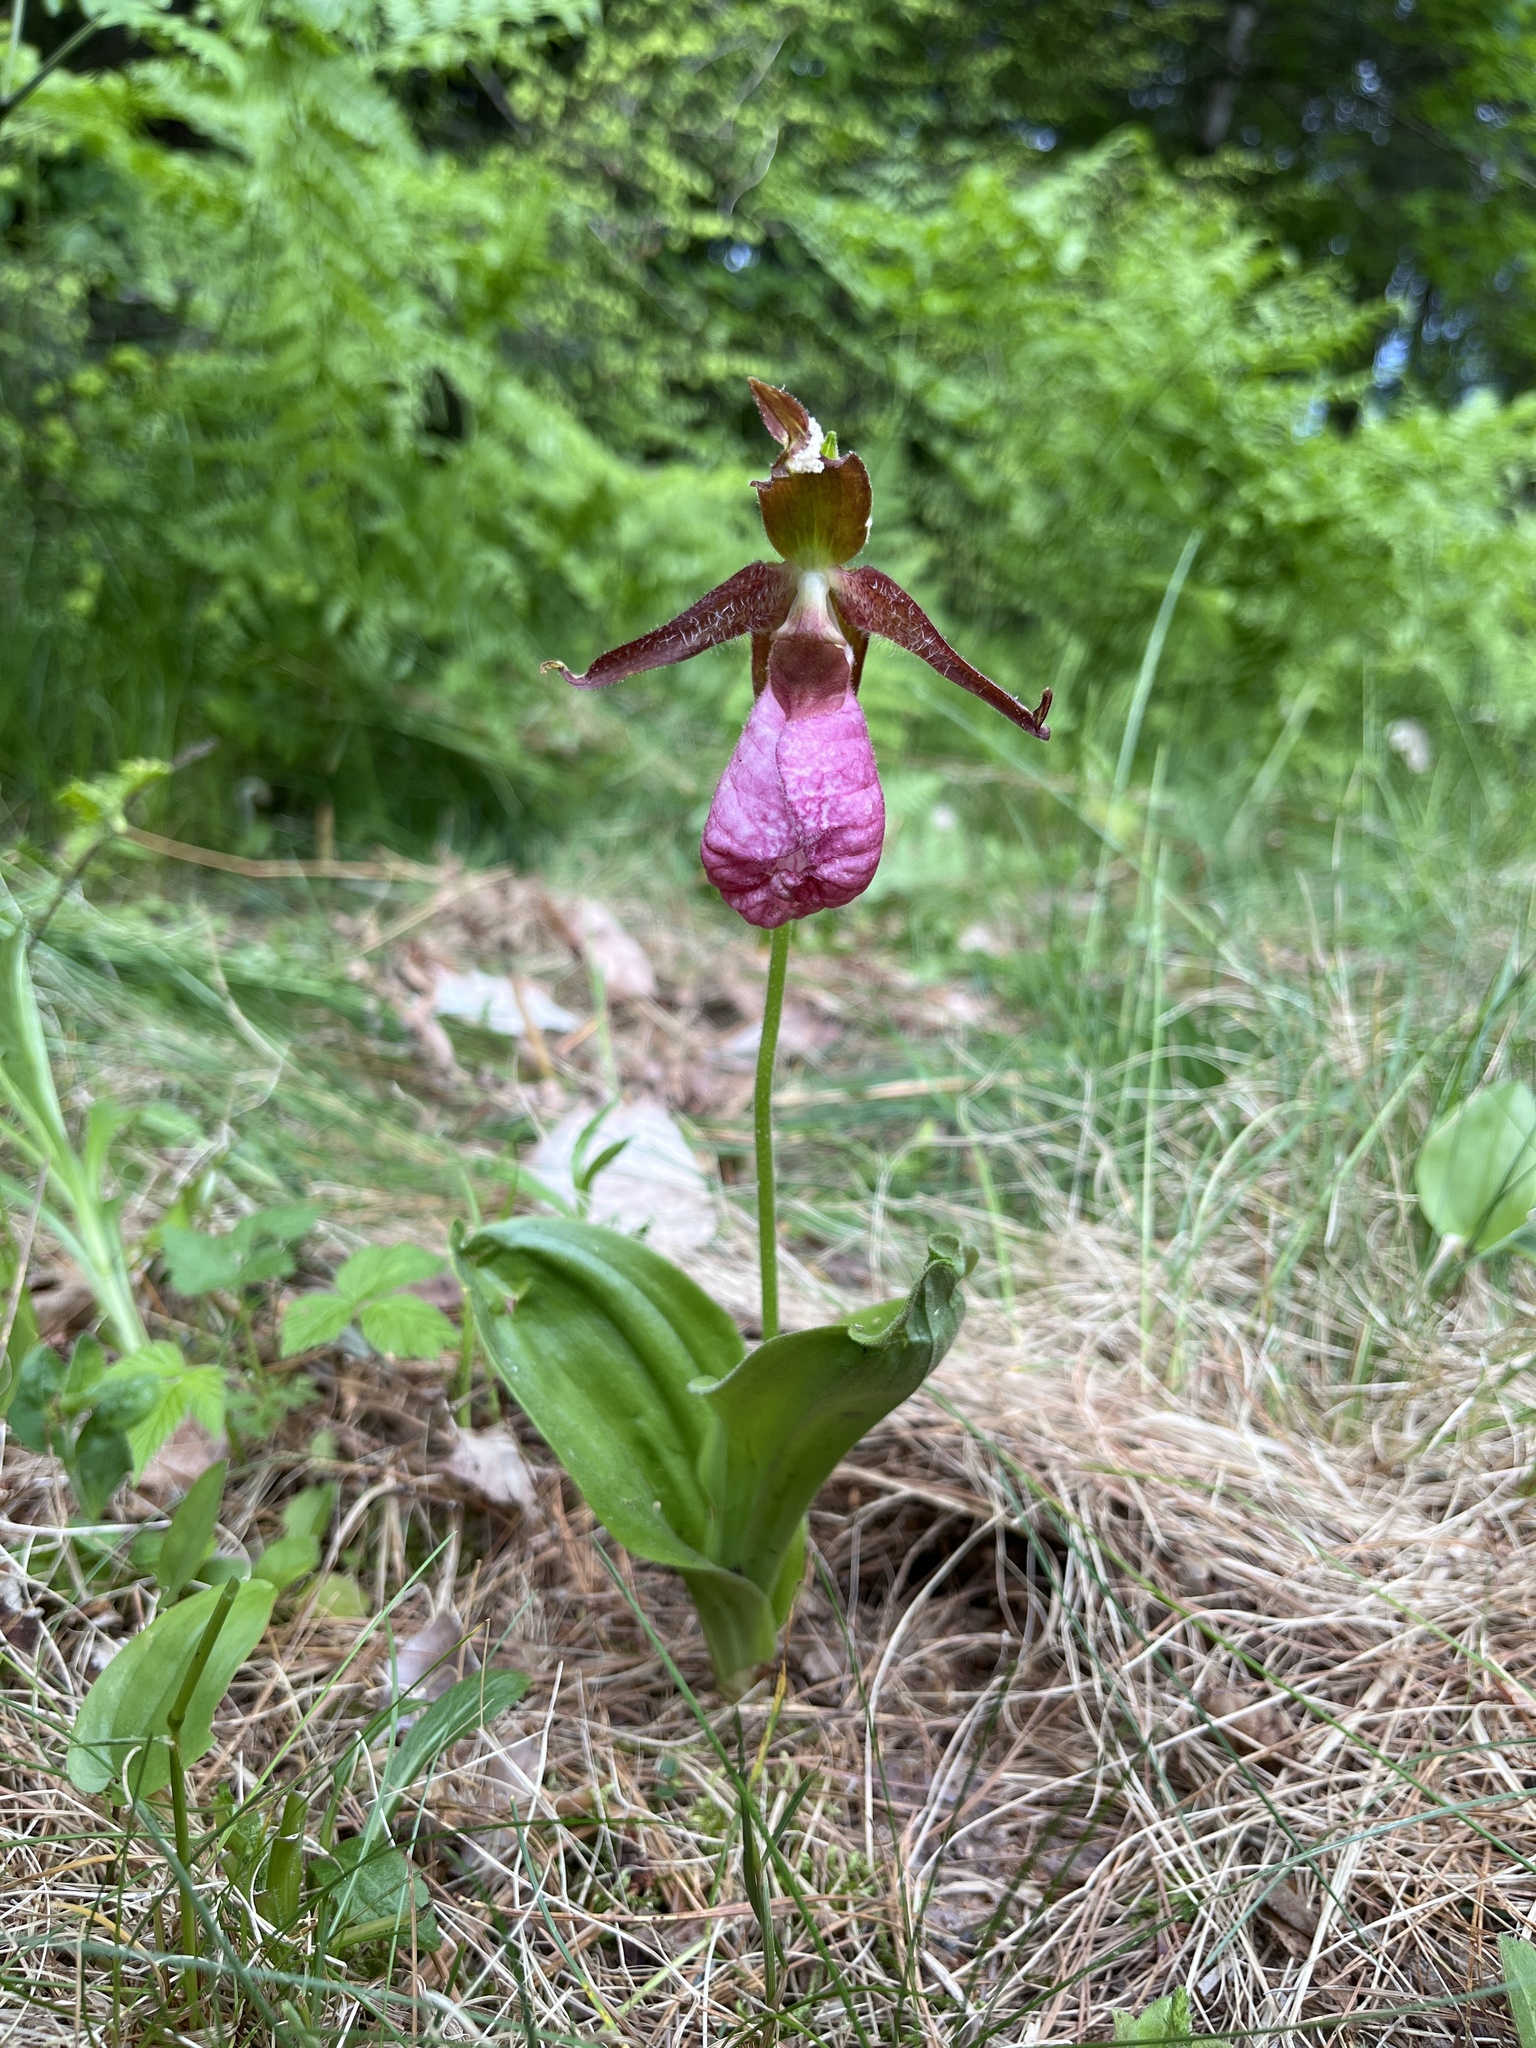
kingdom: Plantae
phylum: Tracheophyta
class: Liliopsida
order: Asparagales
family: Orchidaceae
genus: Cypripedium
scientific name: Cypripedium acaule
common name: Pink lady's-slipper
